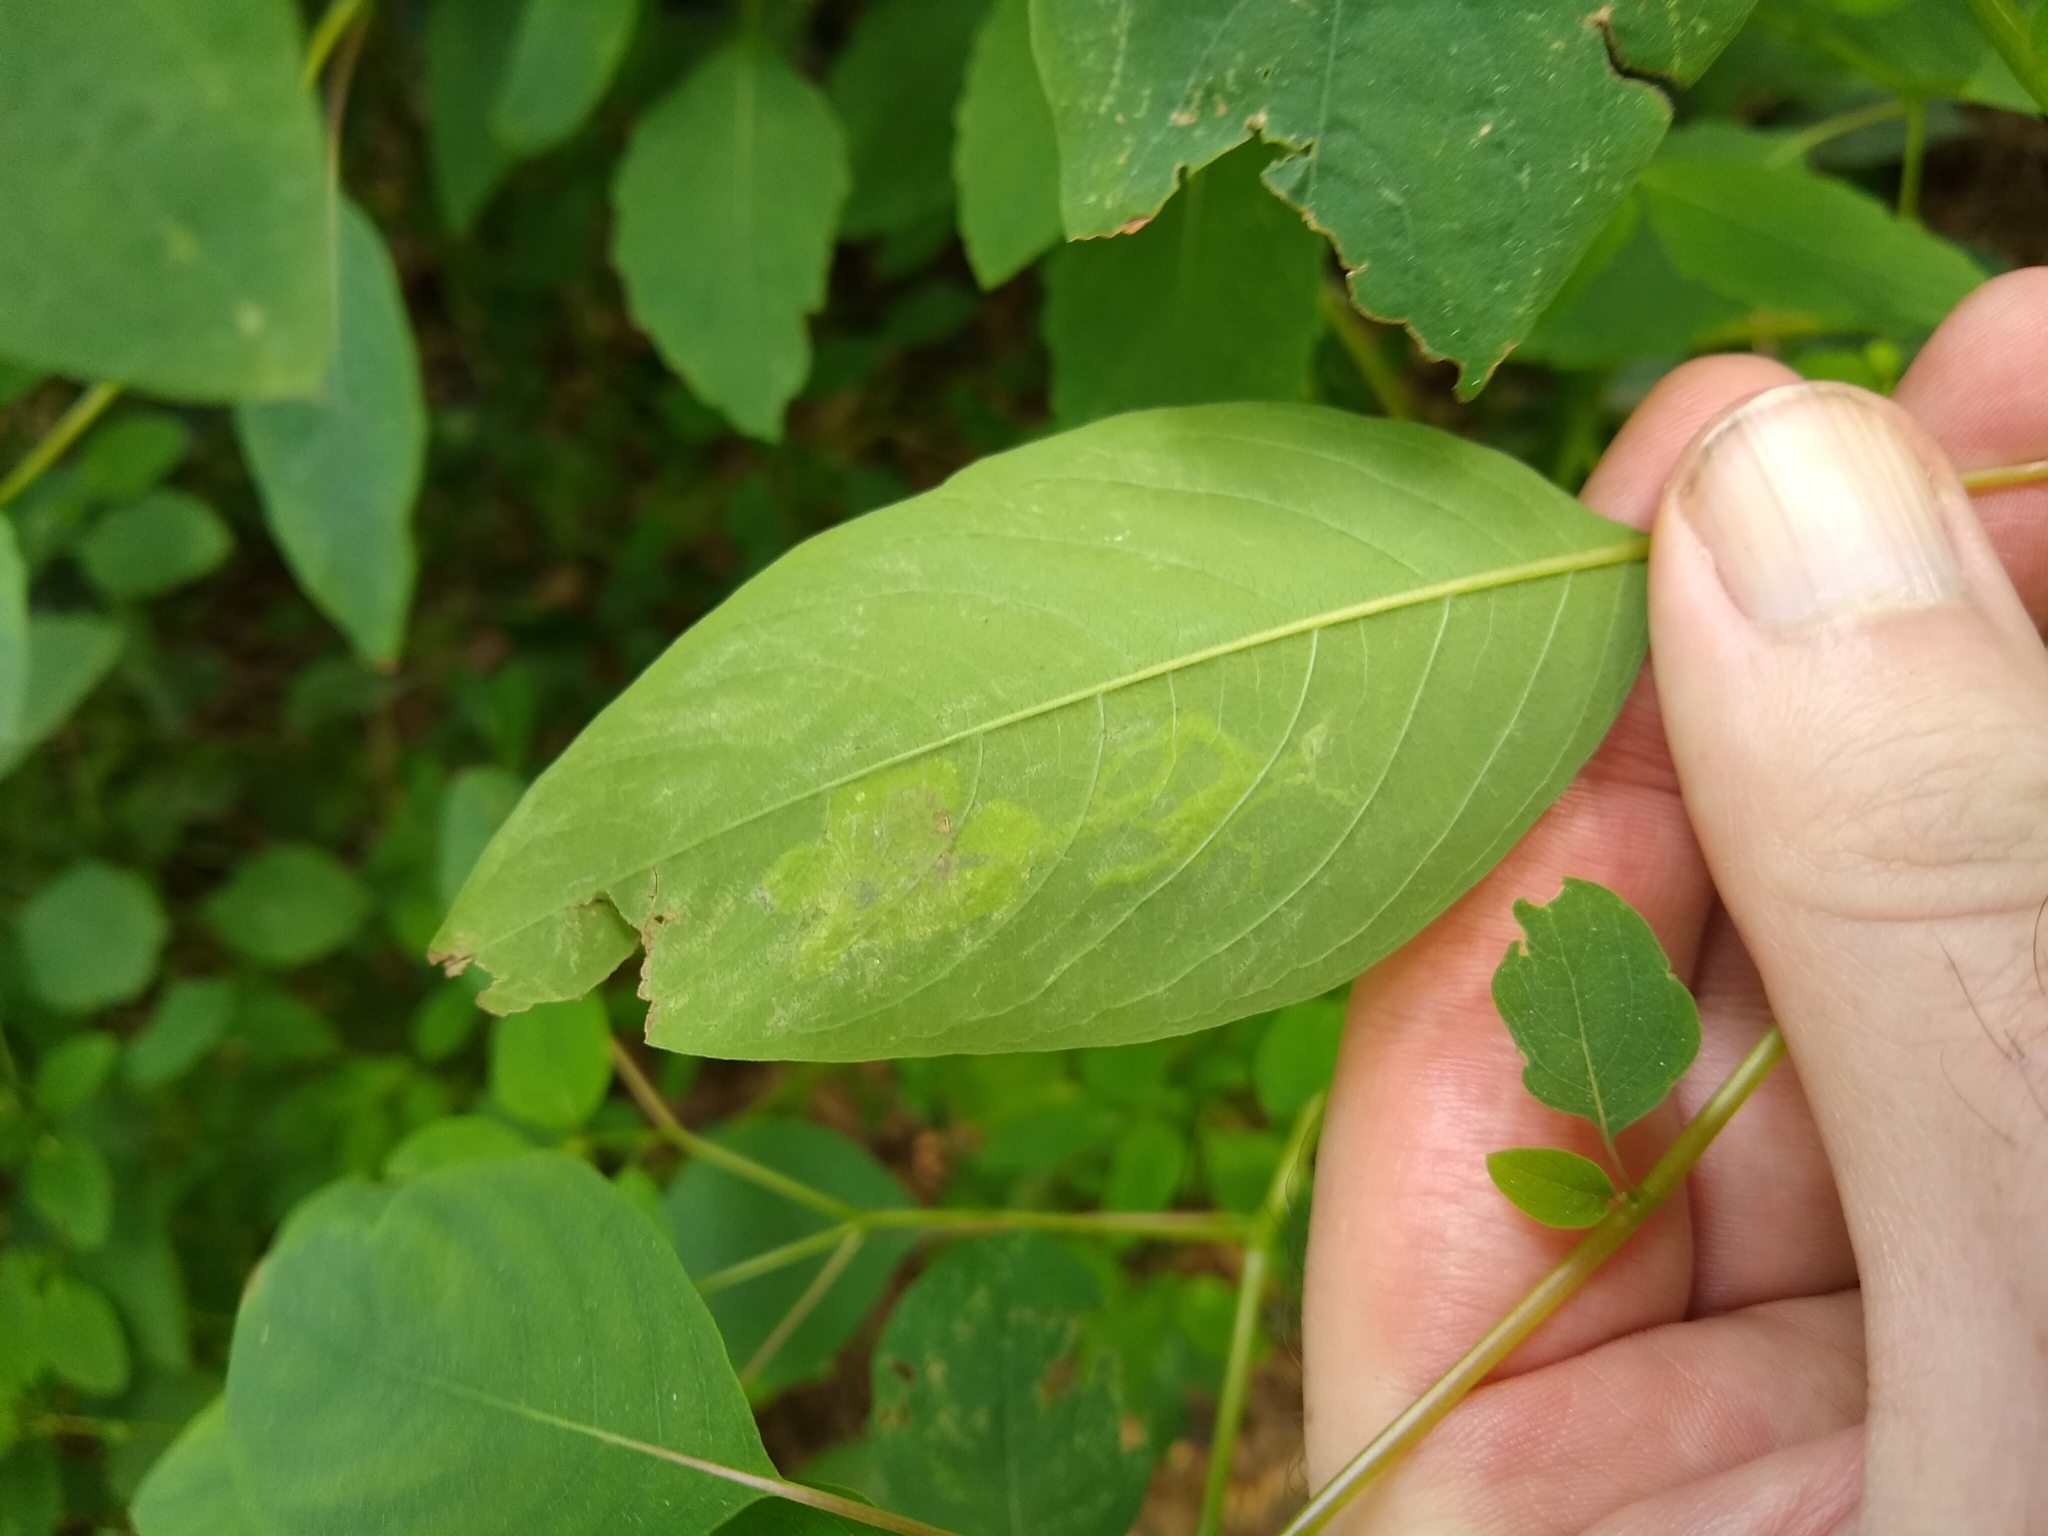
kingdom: Animalia
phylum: Arthropoda
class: Insecta
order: Diptera
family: Agromyzidae
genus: Phytoliriomyza
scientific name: Phytoliriomyza melampyga
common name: Jewelweed leaf-miner fly
